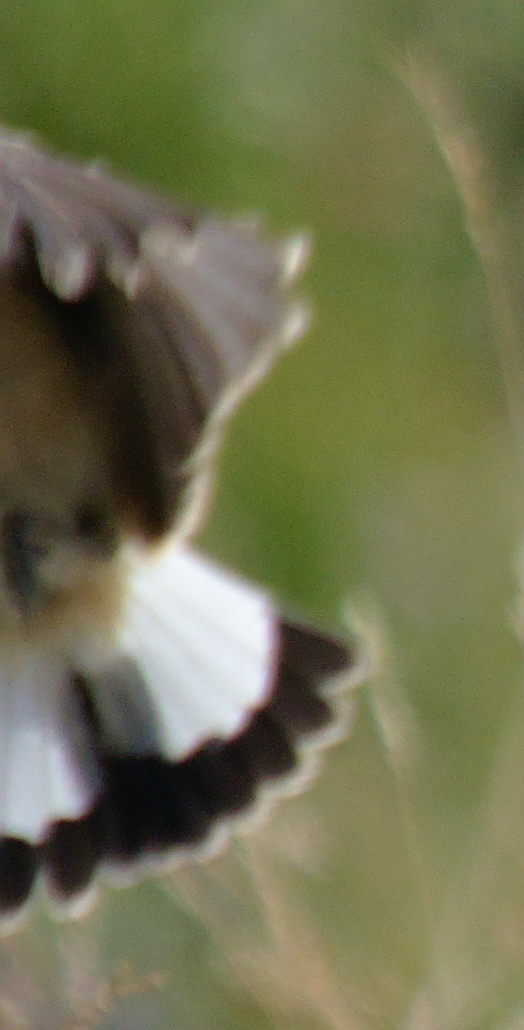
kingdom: Animalia
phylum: Chordata
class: Aves
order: Passeriformes
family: Muscicapidae
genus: Oenanthe
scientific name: Oenanthe oenanthe
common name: Northern wheatear
